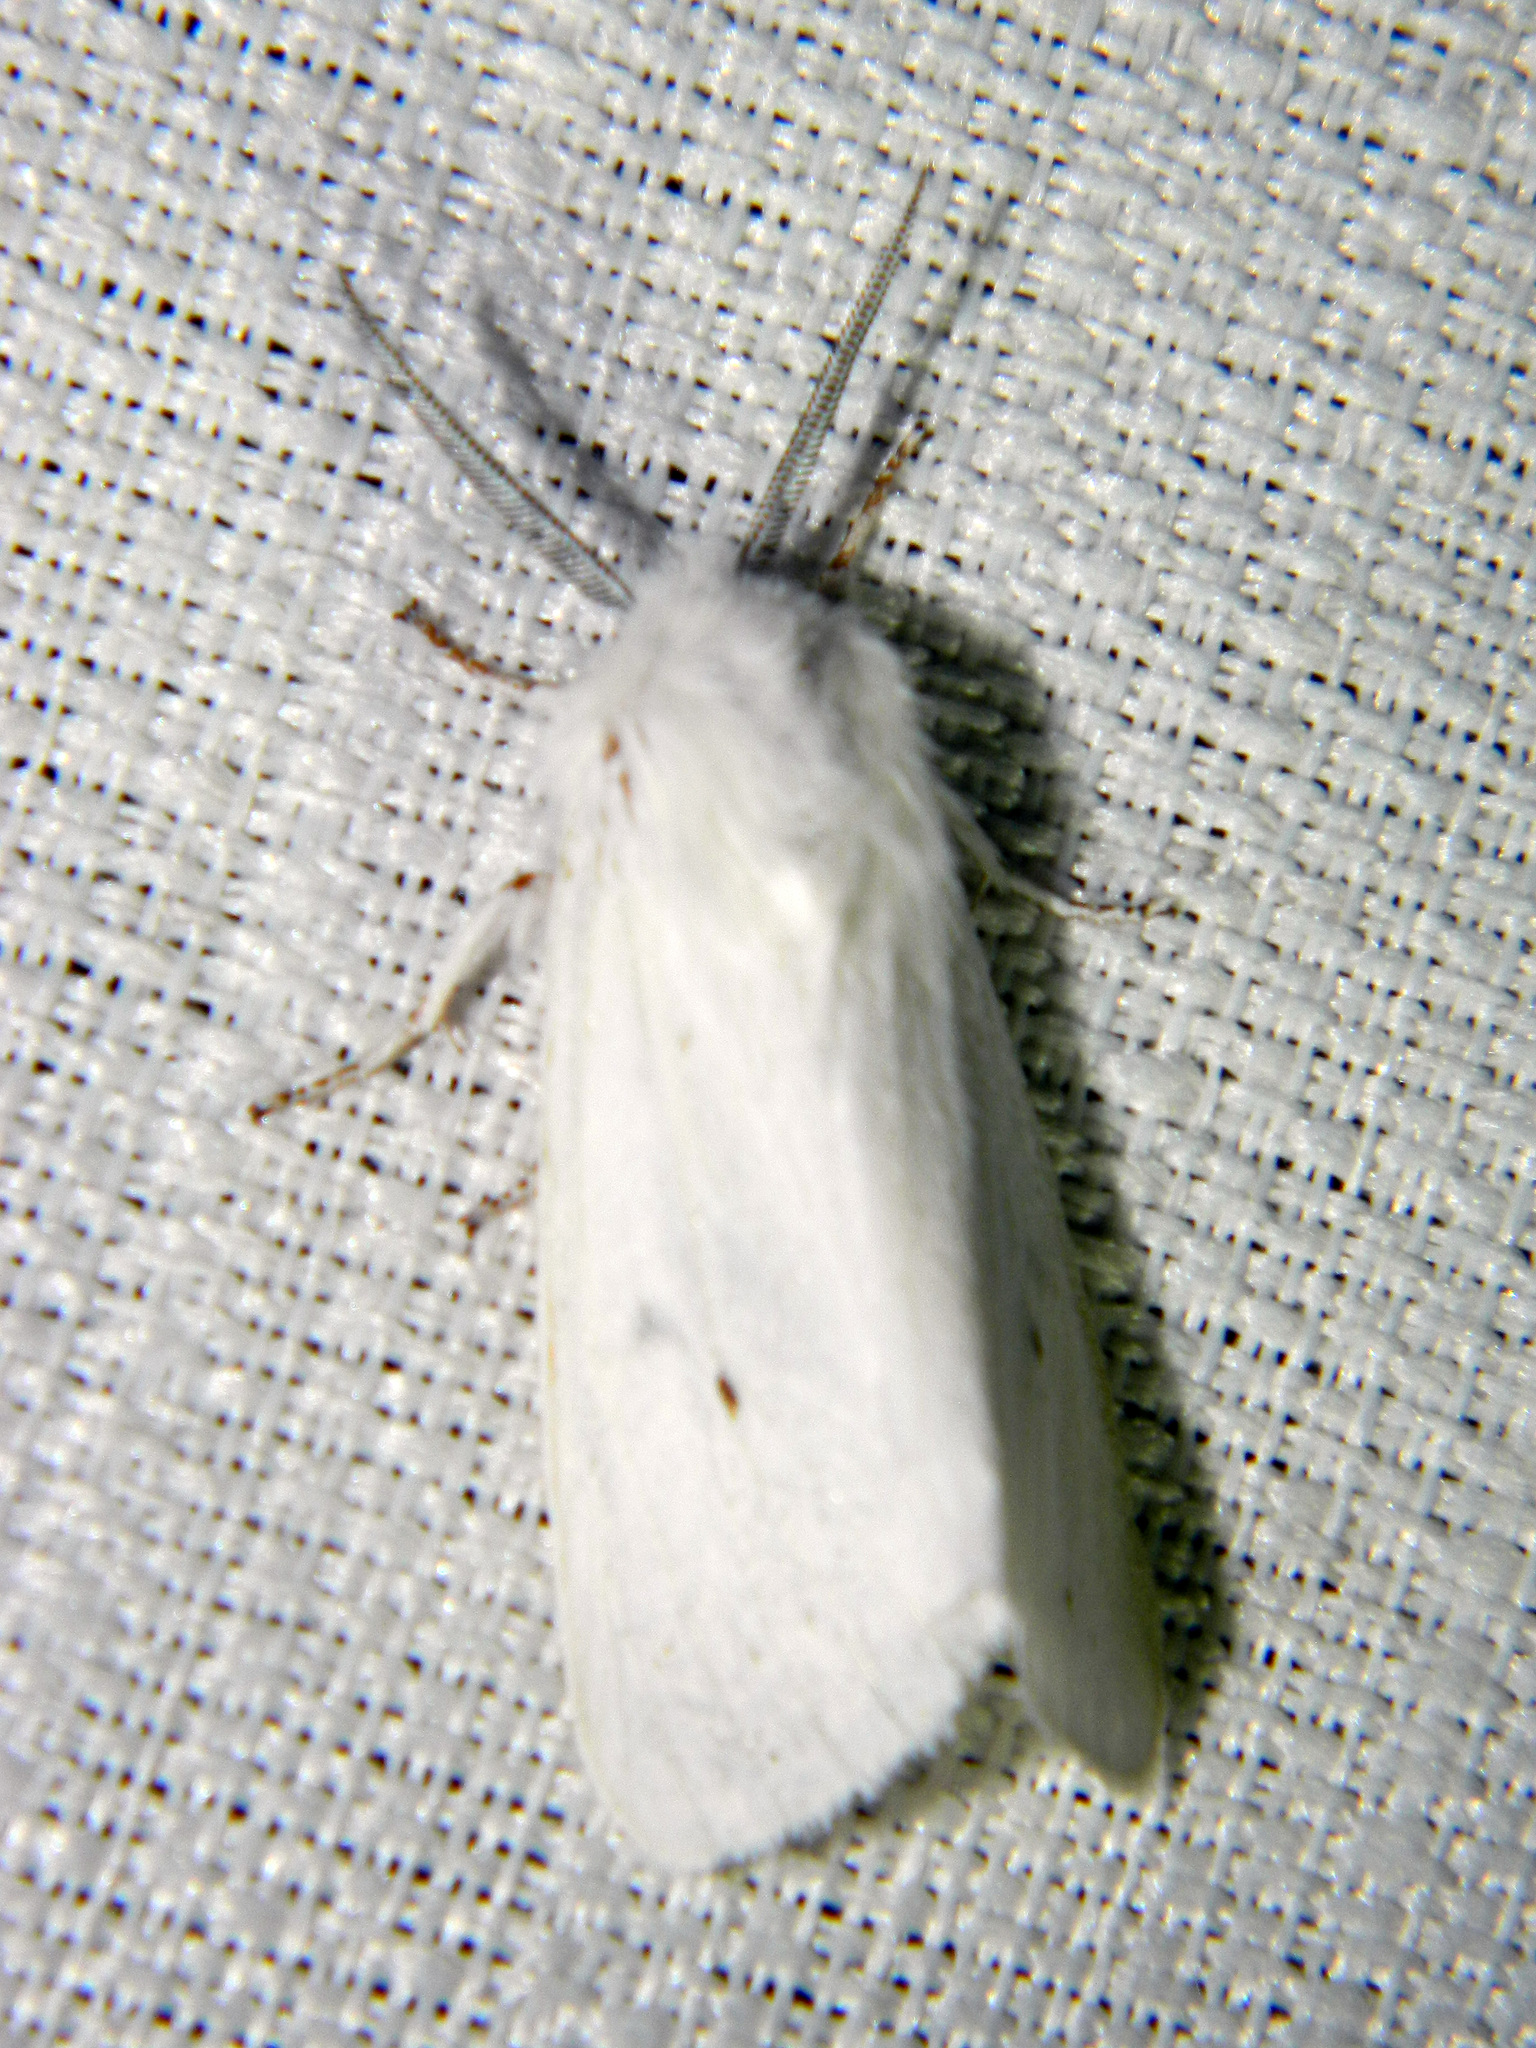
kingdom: Animalia
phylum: Arthropoda
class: Insecta
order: Lepidoptera
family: Erebidae
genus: Spilosoma
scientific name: Spilosoma virginica
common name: Virginia tiger moth
